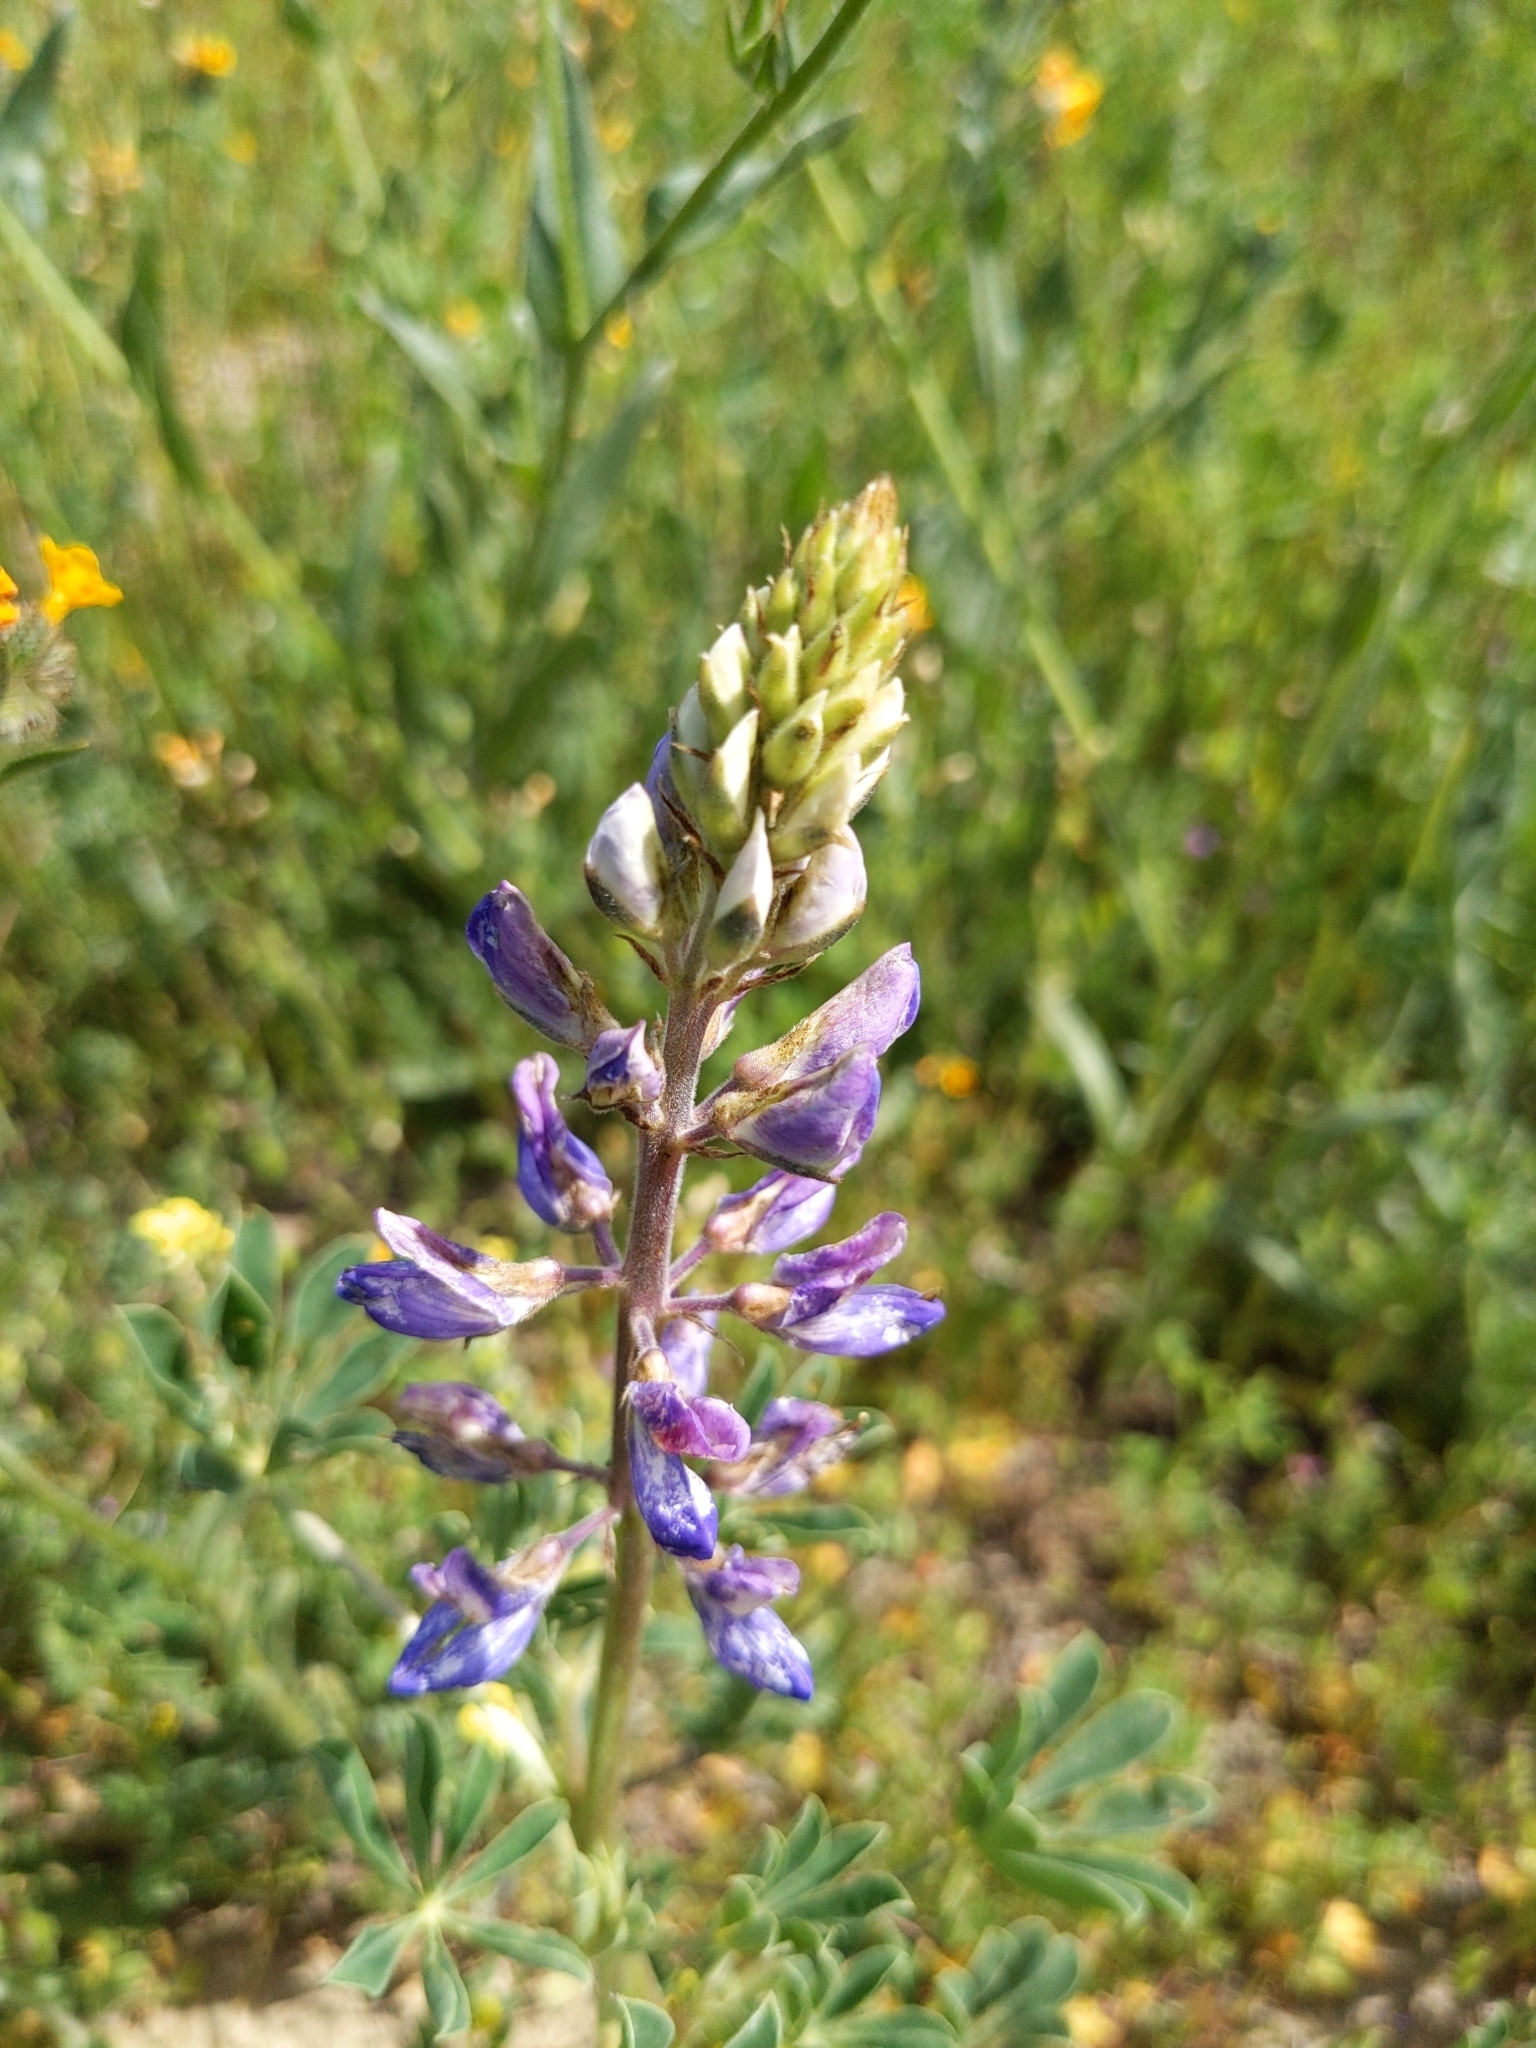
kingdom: Plantae
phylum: Tracheophyta
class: Magnoliopsida
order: Fabales
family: Fabaceae
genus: Lupinus
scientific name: Lupinus succulentus
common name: Arroyo lupine
